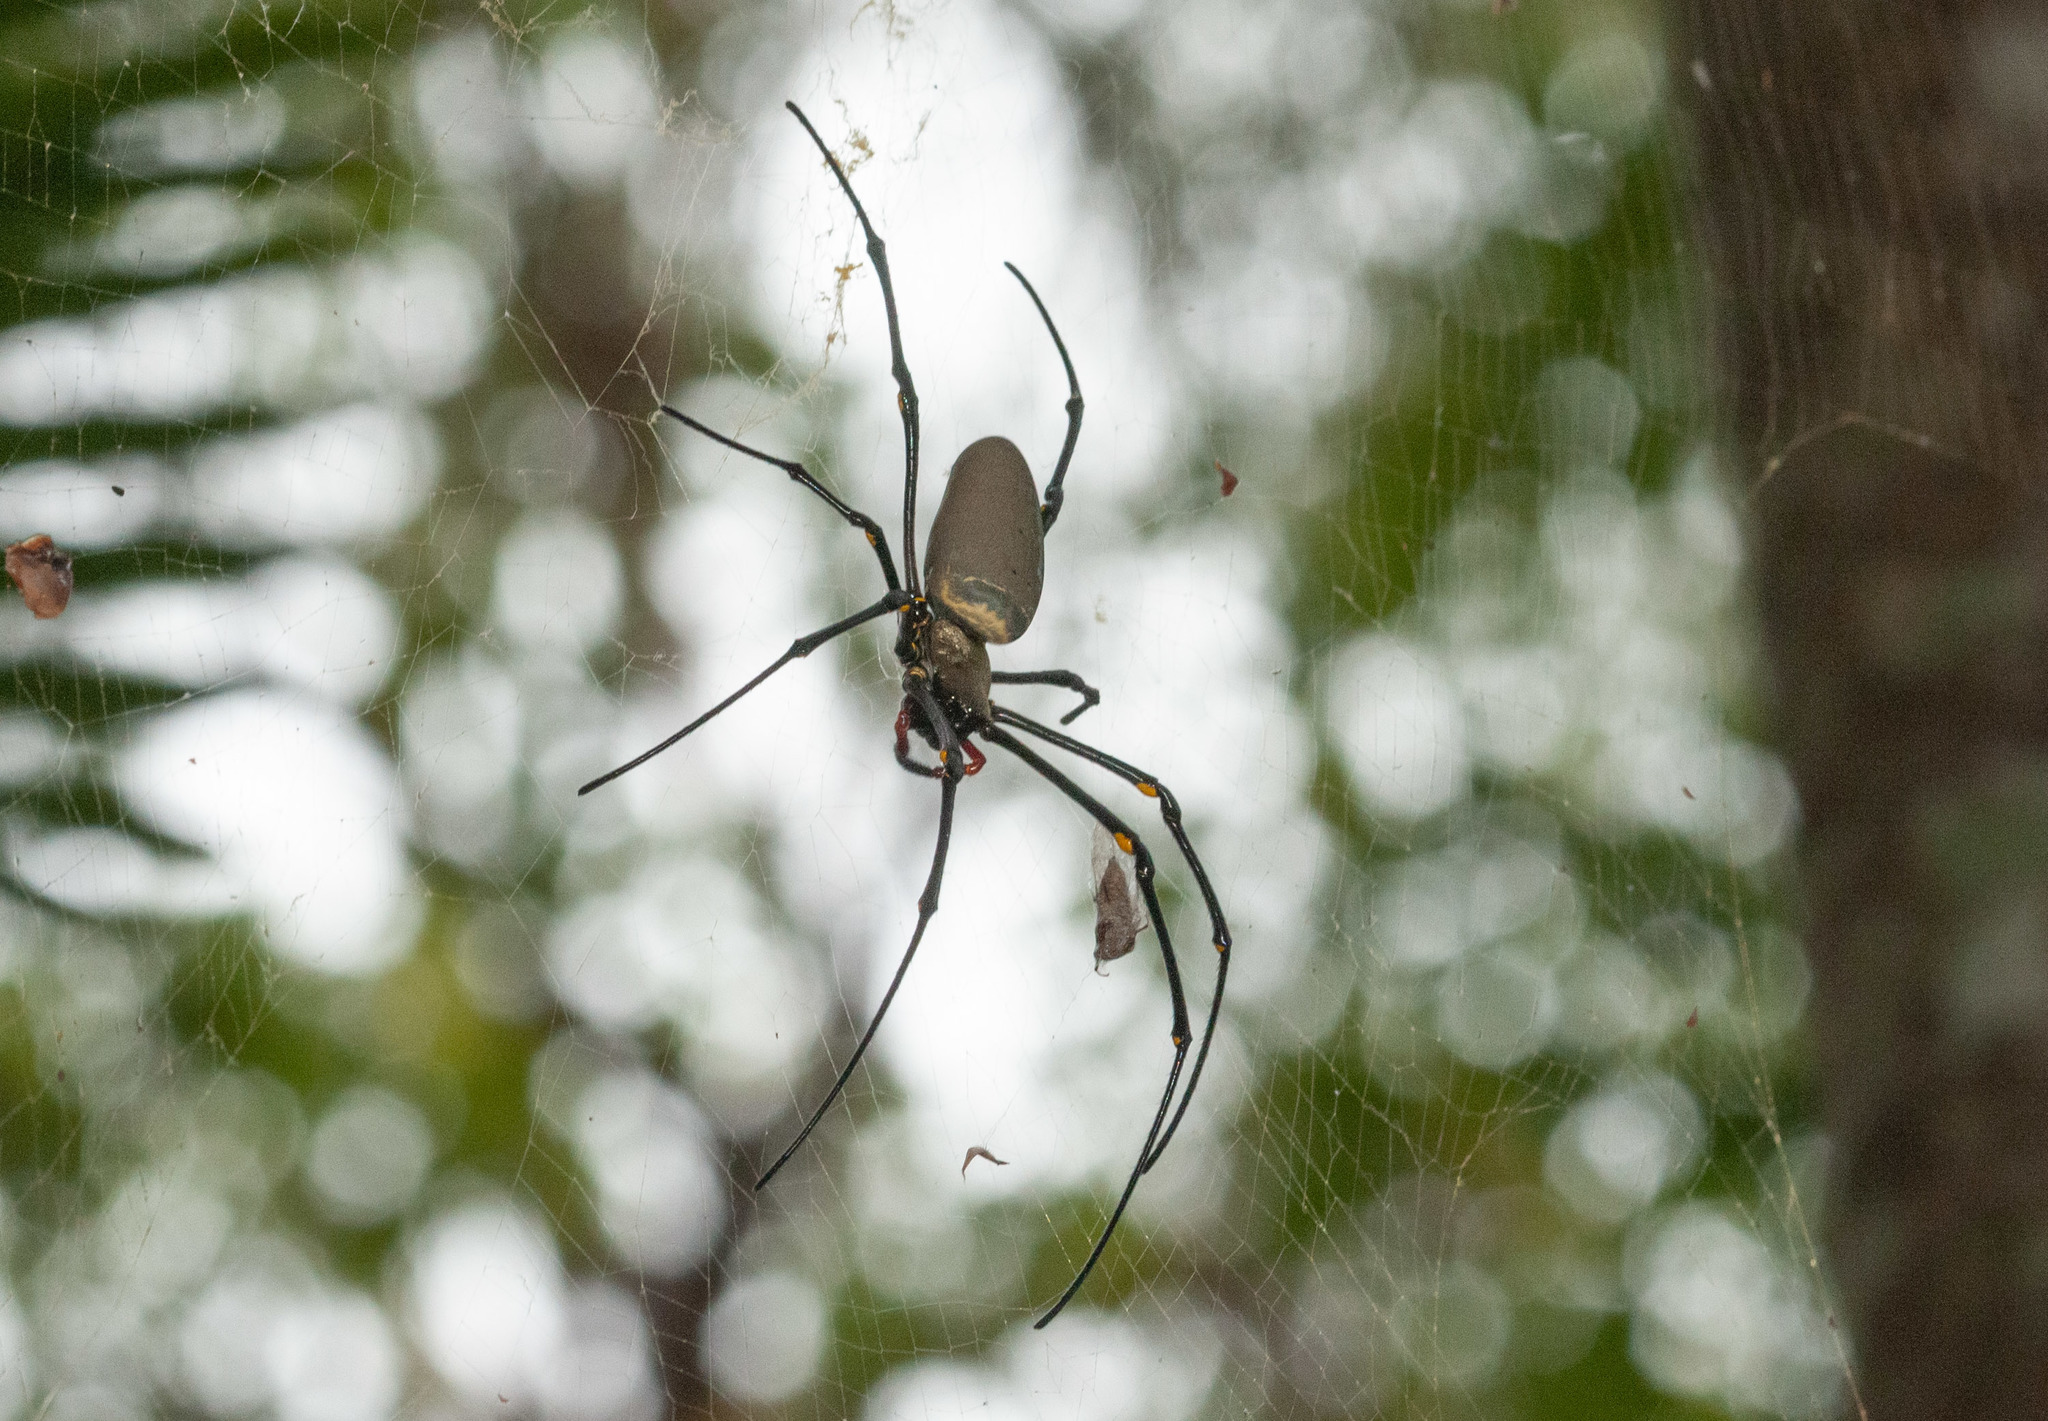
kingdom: Animalia
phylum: Arthropoda
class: Arachnida
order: Araneae
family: Araneidae
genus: Nephila
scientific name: Nephila pilipes
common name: Giant golden orb weaver
